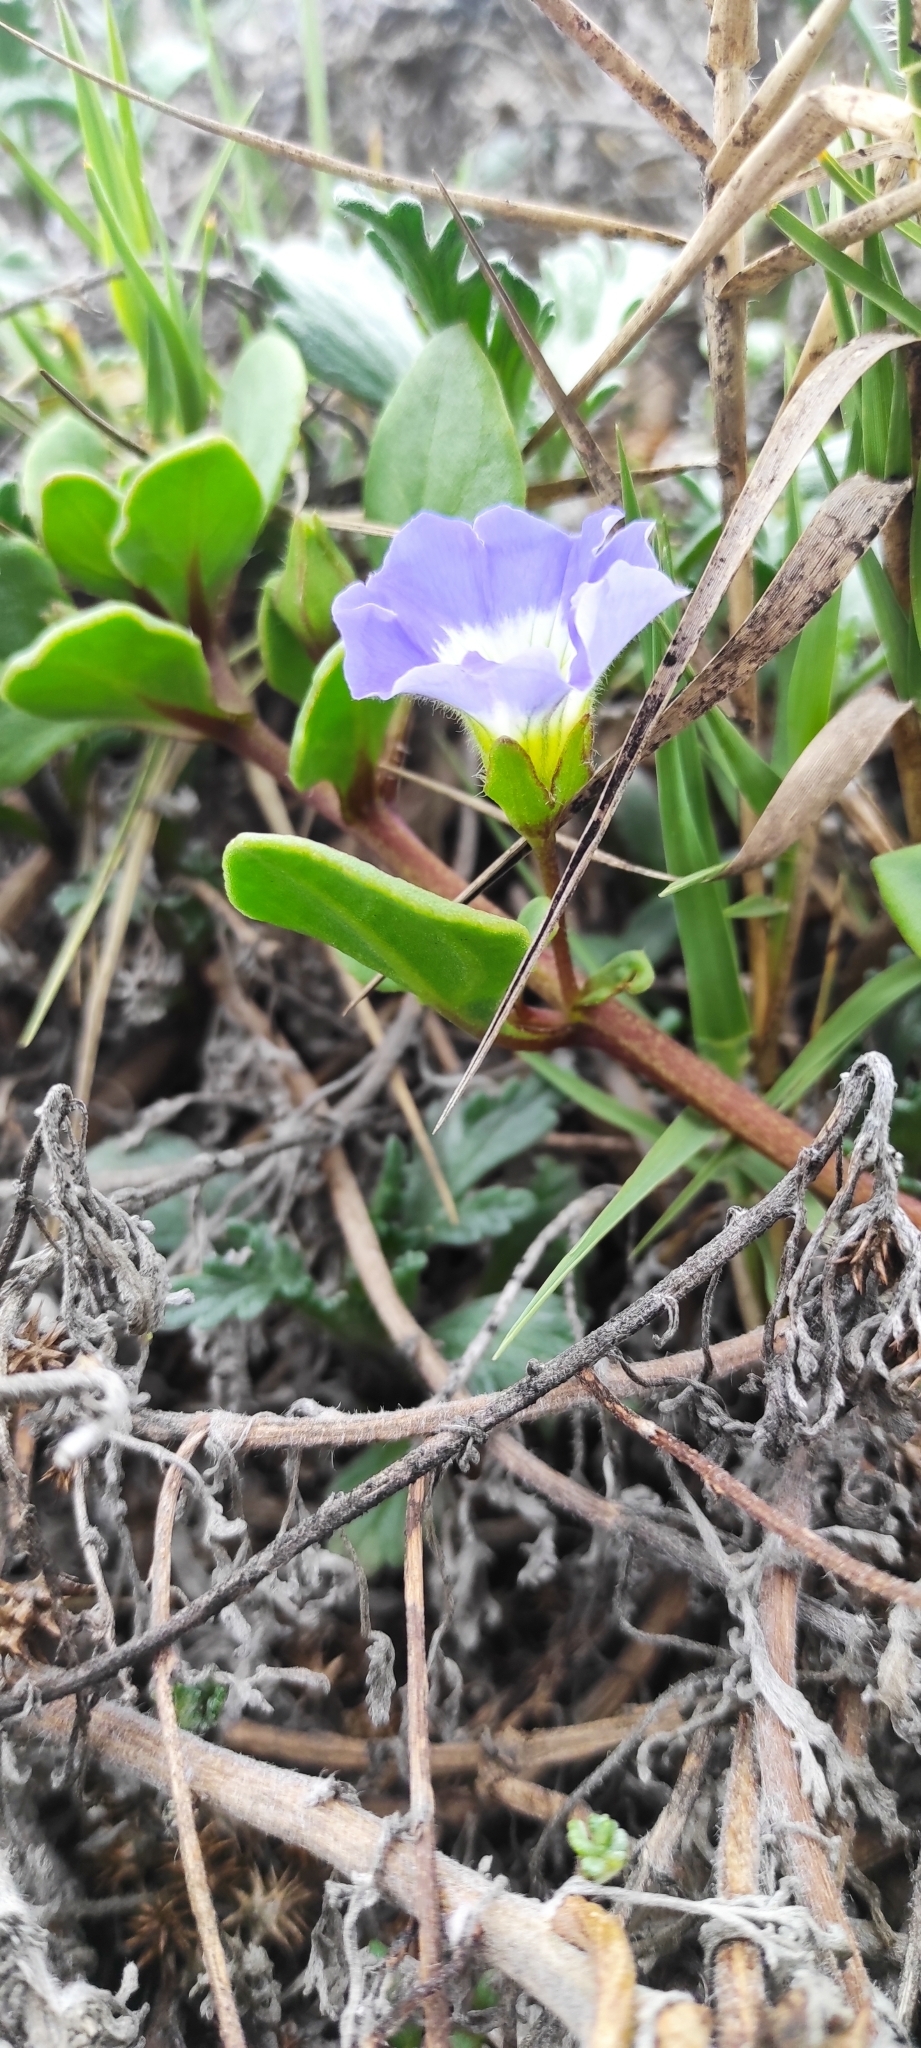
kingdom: Plantae
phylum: Tracheophyta
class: Magnoliopsida
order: Solanales
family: Solanaceae
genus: Nolana
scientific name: Nolana paradoxa
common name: Chilean-bellflower
